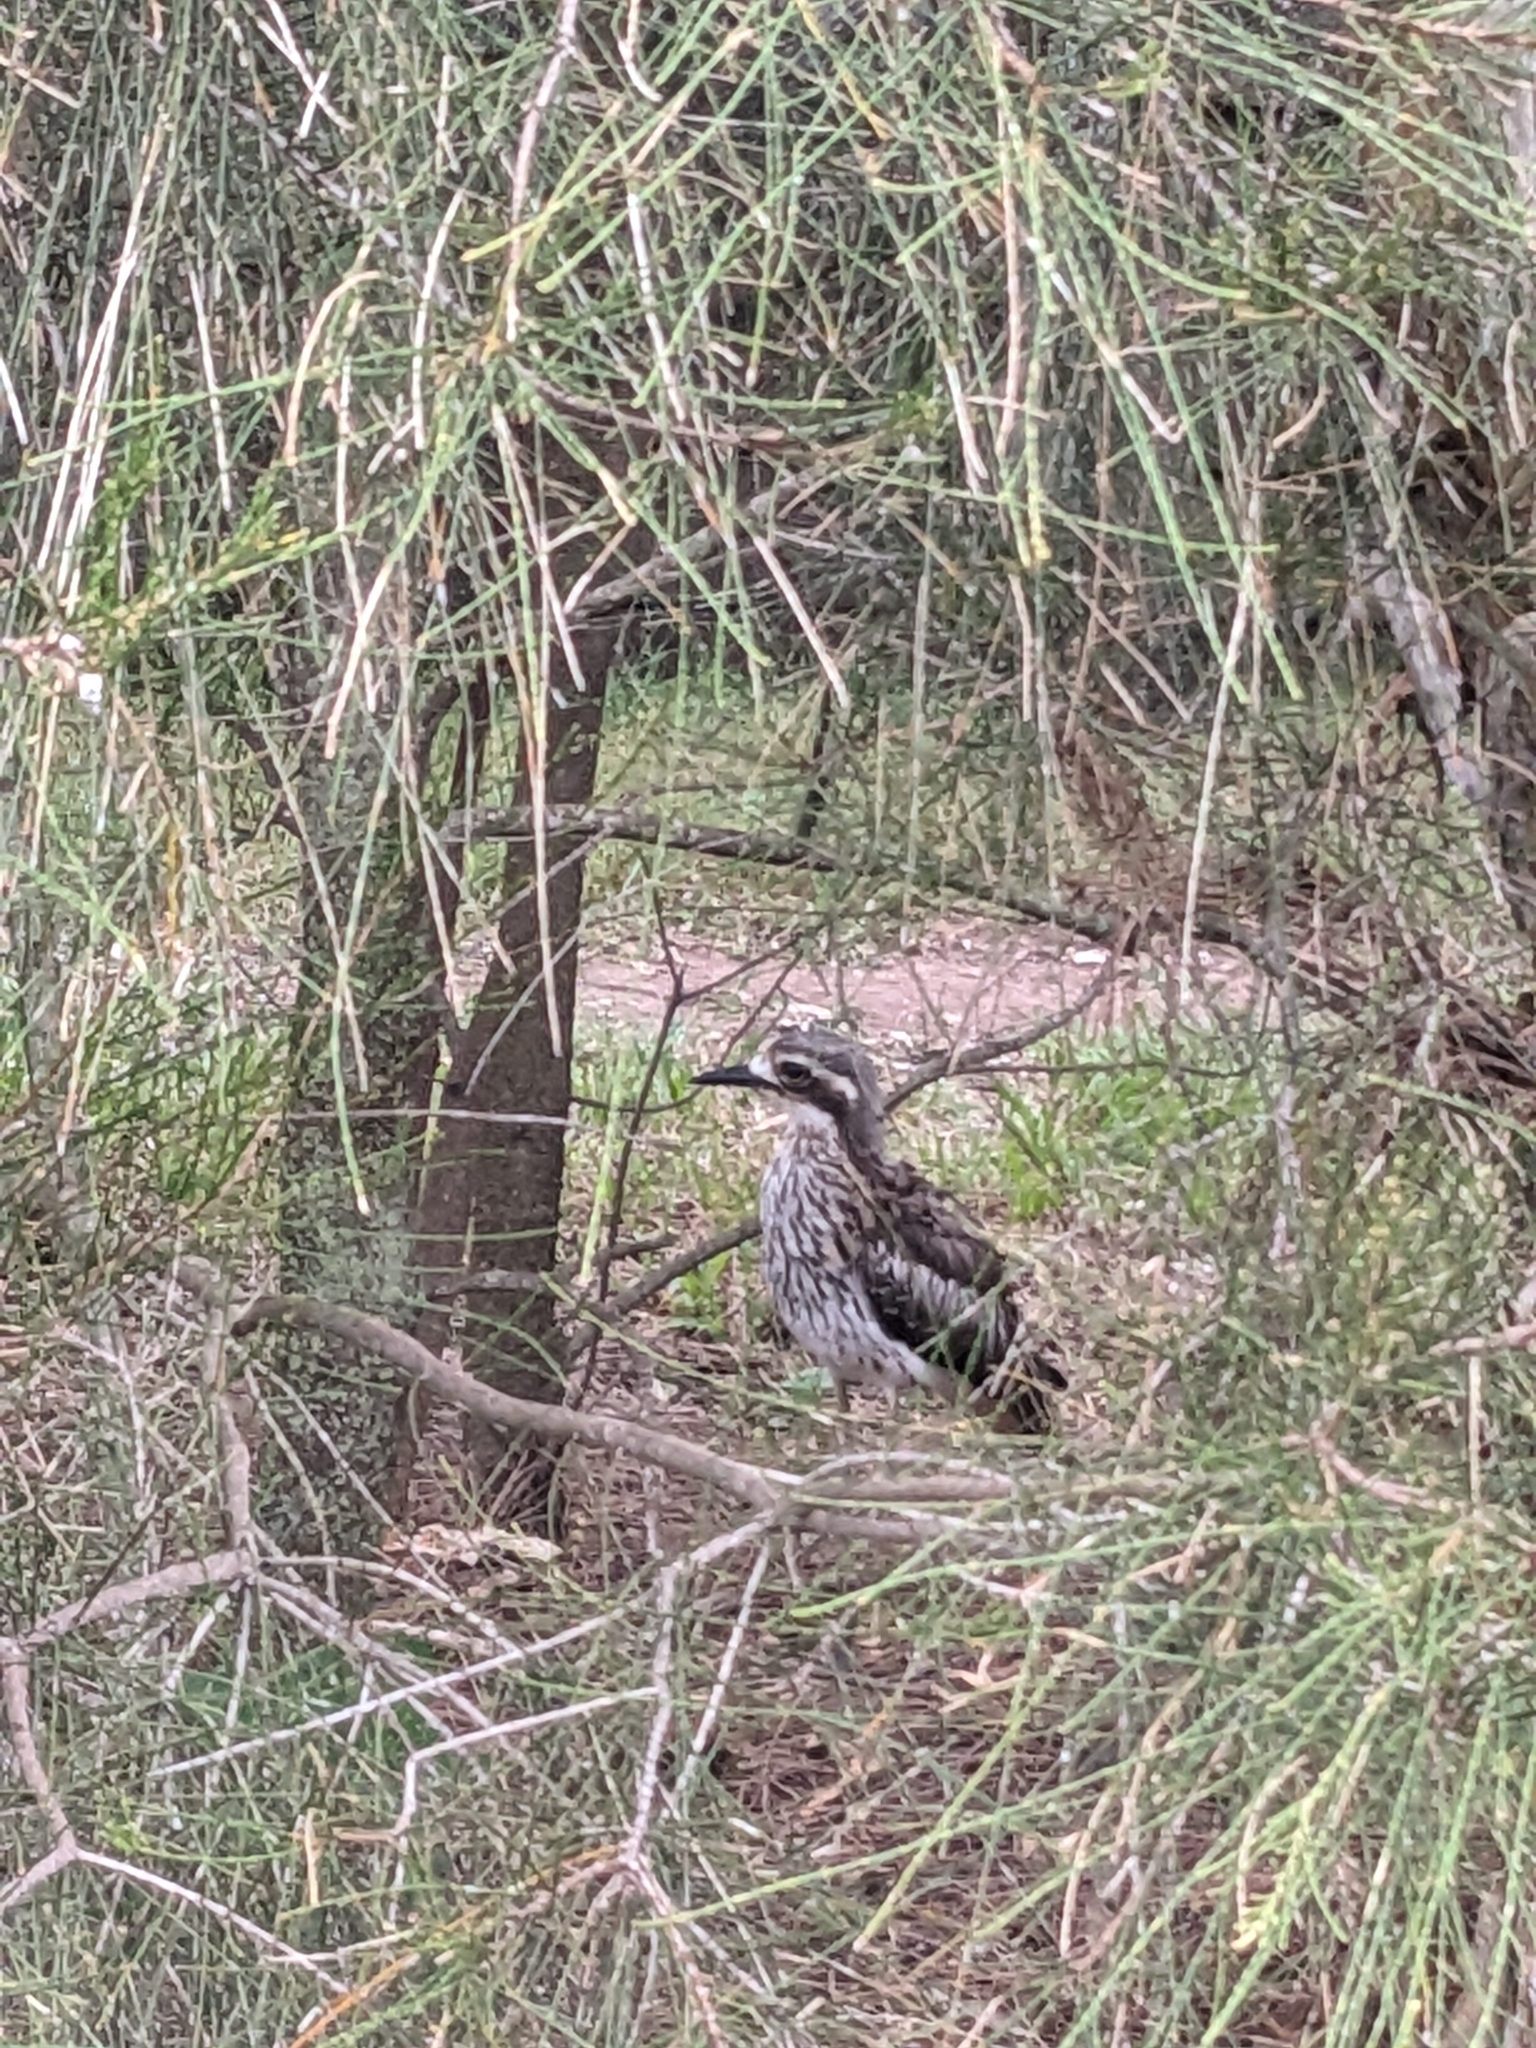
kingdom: Animalia
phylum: Chordata
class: Aves
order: Charadriiformes
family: Burhinidae
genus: Burhinus
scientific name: Burhinus grallarius
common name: Bush stone-curlew
